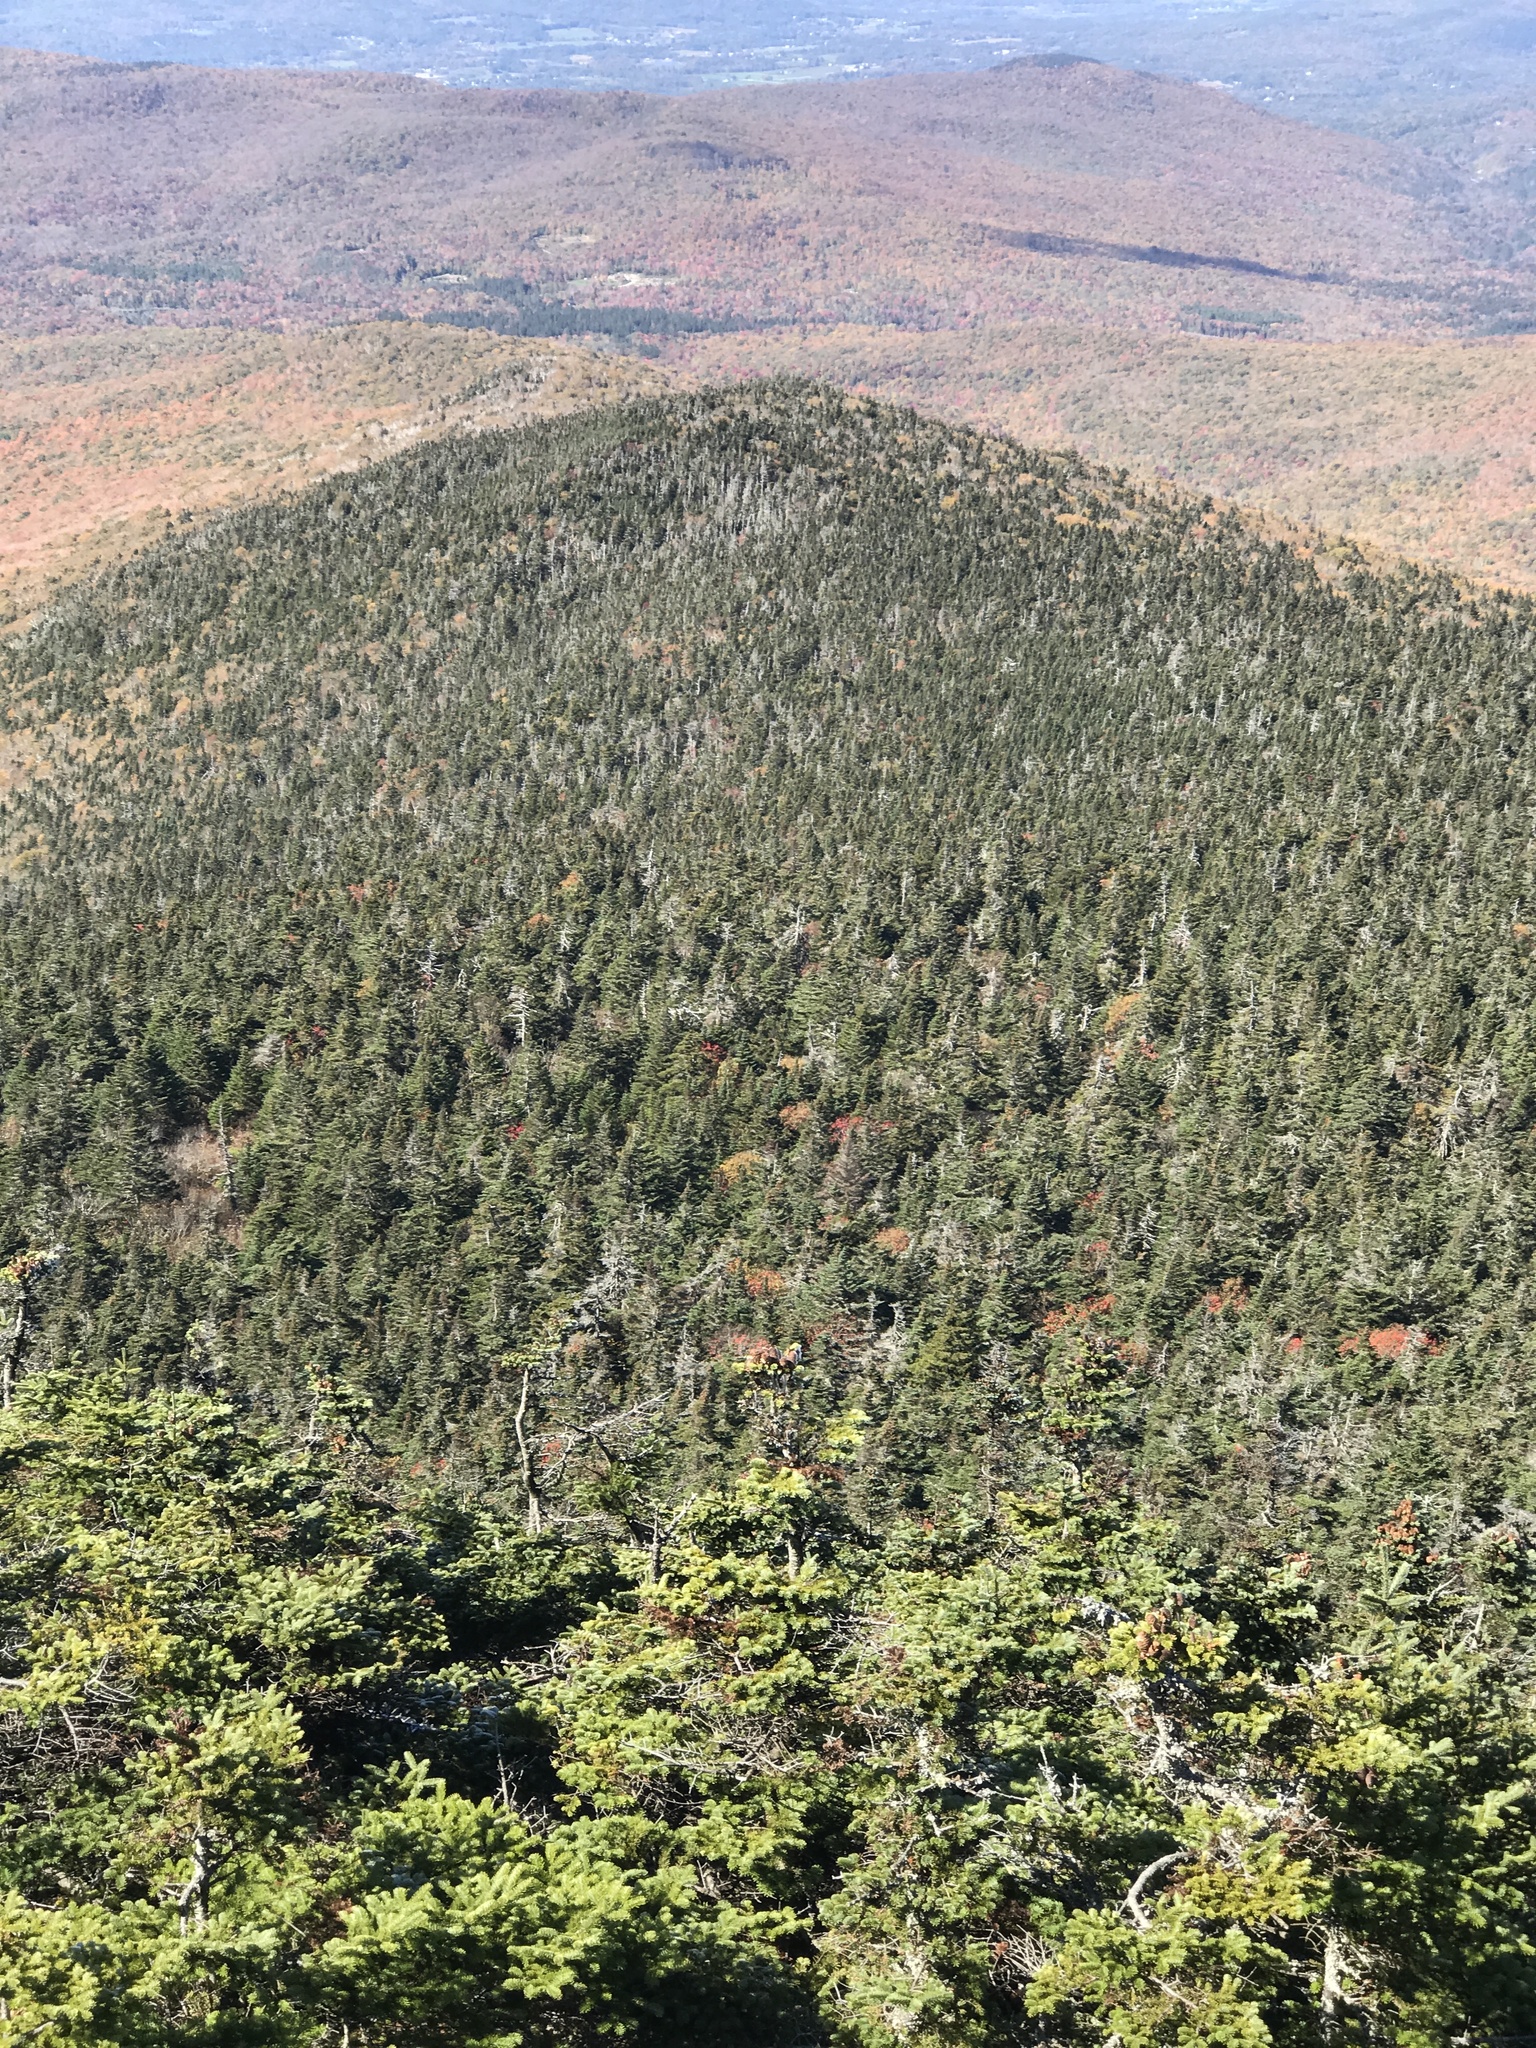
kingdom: Plantae
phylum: Tracheophyta
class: Pinopsida
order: Pinales
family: Pinaceae
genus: Abies
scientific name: Abies balsamea
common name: Balsam fir
